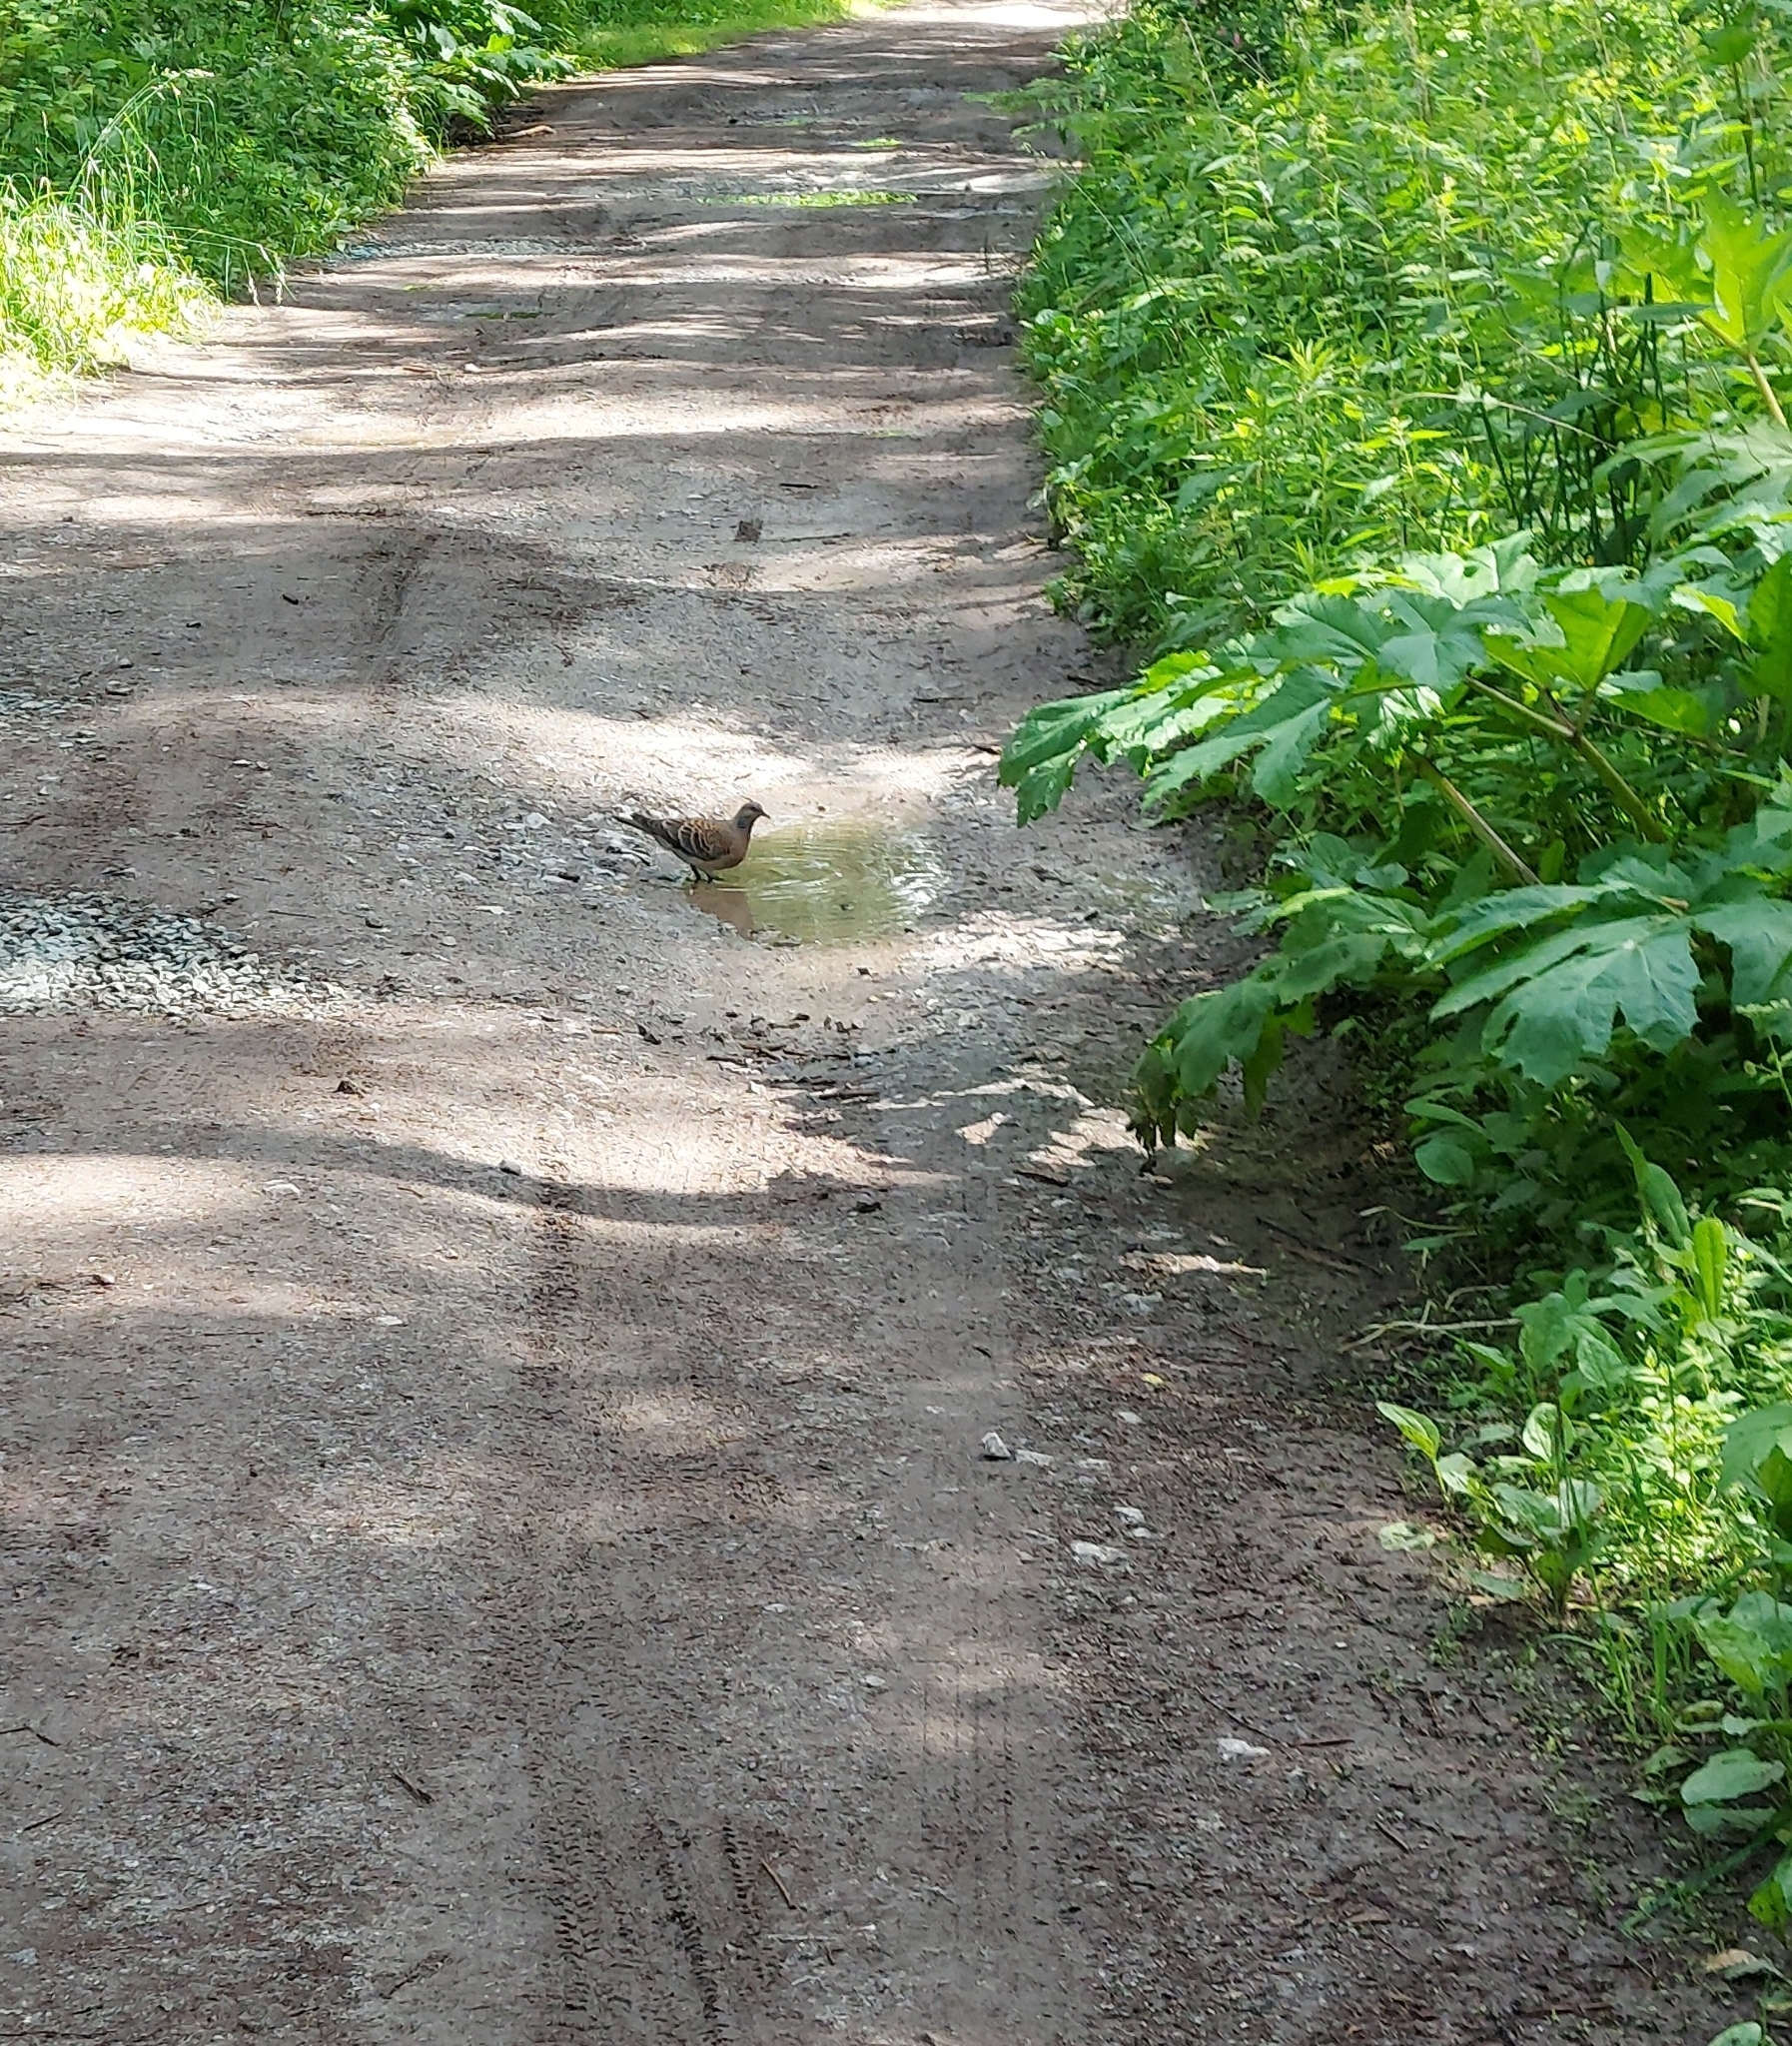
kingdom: Animalia
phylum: Chordata
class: Aves
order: Columbiformes
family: Columbidae
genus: Streptopelia
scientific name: Streptopelia orientalis
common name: Oriental turtle dove
